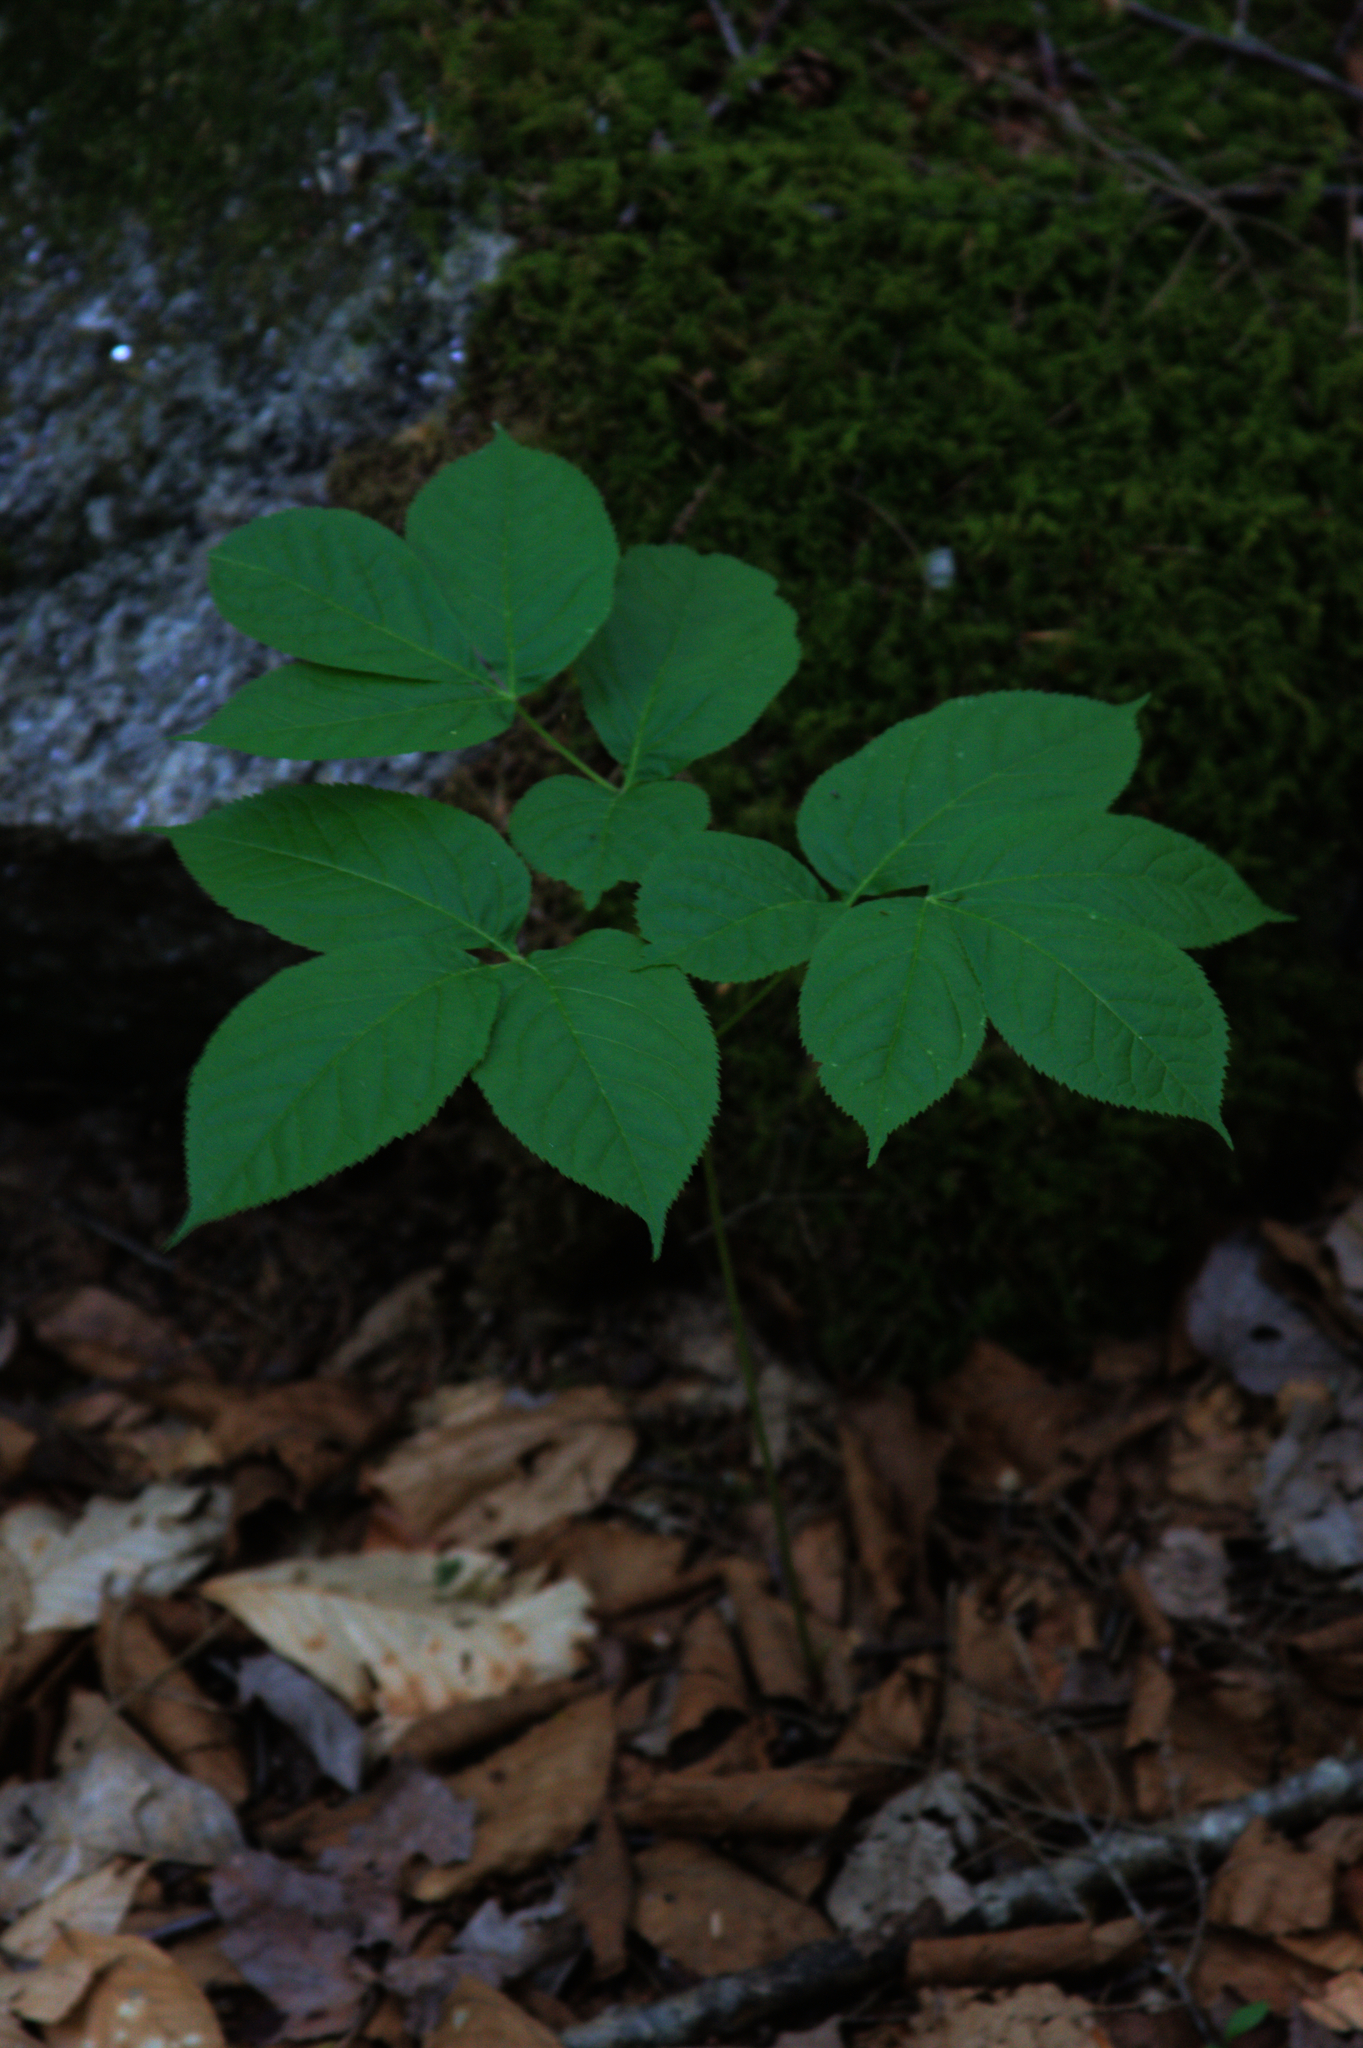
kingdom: Plantae
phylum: Tracheophyta
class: Magnoliopsida
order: Apiales
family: Araliaceae
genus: Aralia
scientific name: Aralia nudicaulis
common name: Wild sarsaparilla
